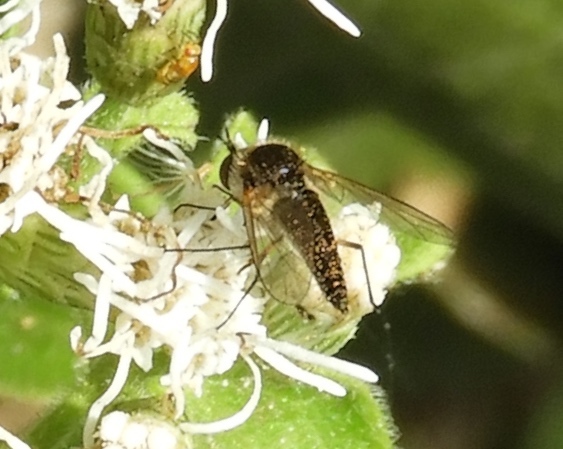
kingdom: Animalia
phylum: Arthropoda
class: Insecta
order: Diptera
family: Bombyliidae
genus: Geron
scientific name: Geron
